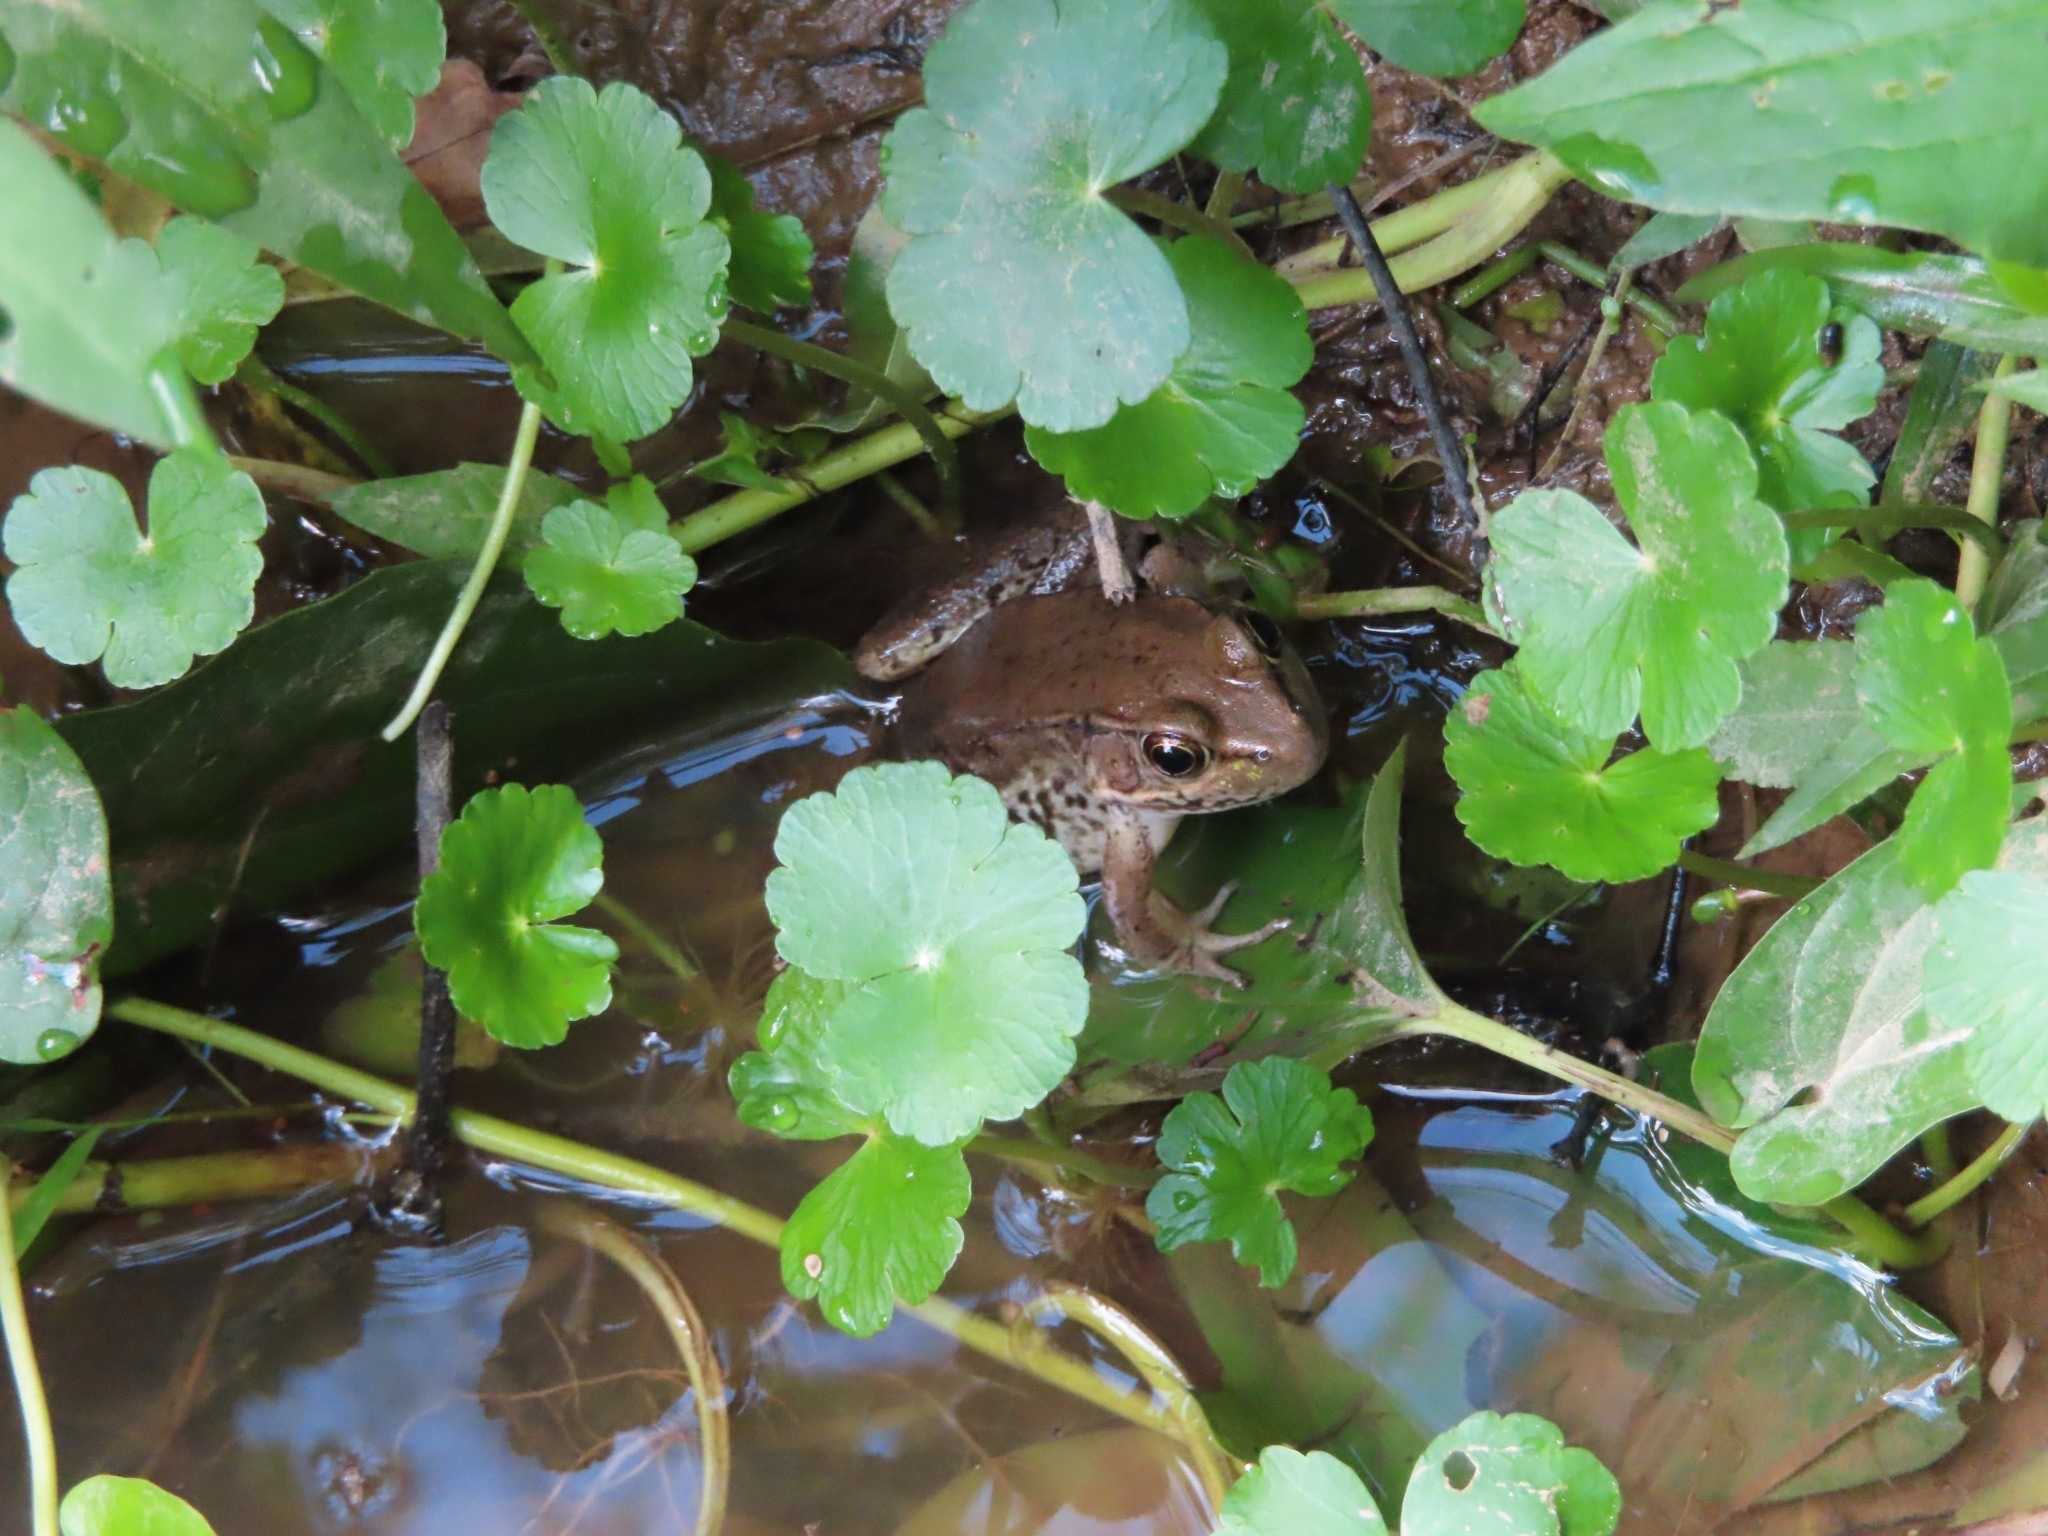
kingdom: Animalia
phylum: Chordata
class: Amphibia
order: Anura
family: Ranidae
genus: Lithobates
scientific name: Lithobates clamitans
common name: Green frog
